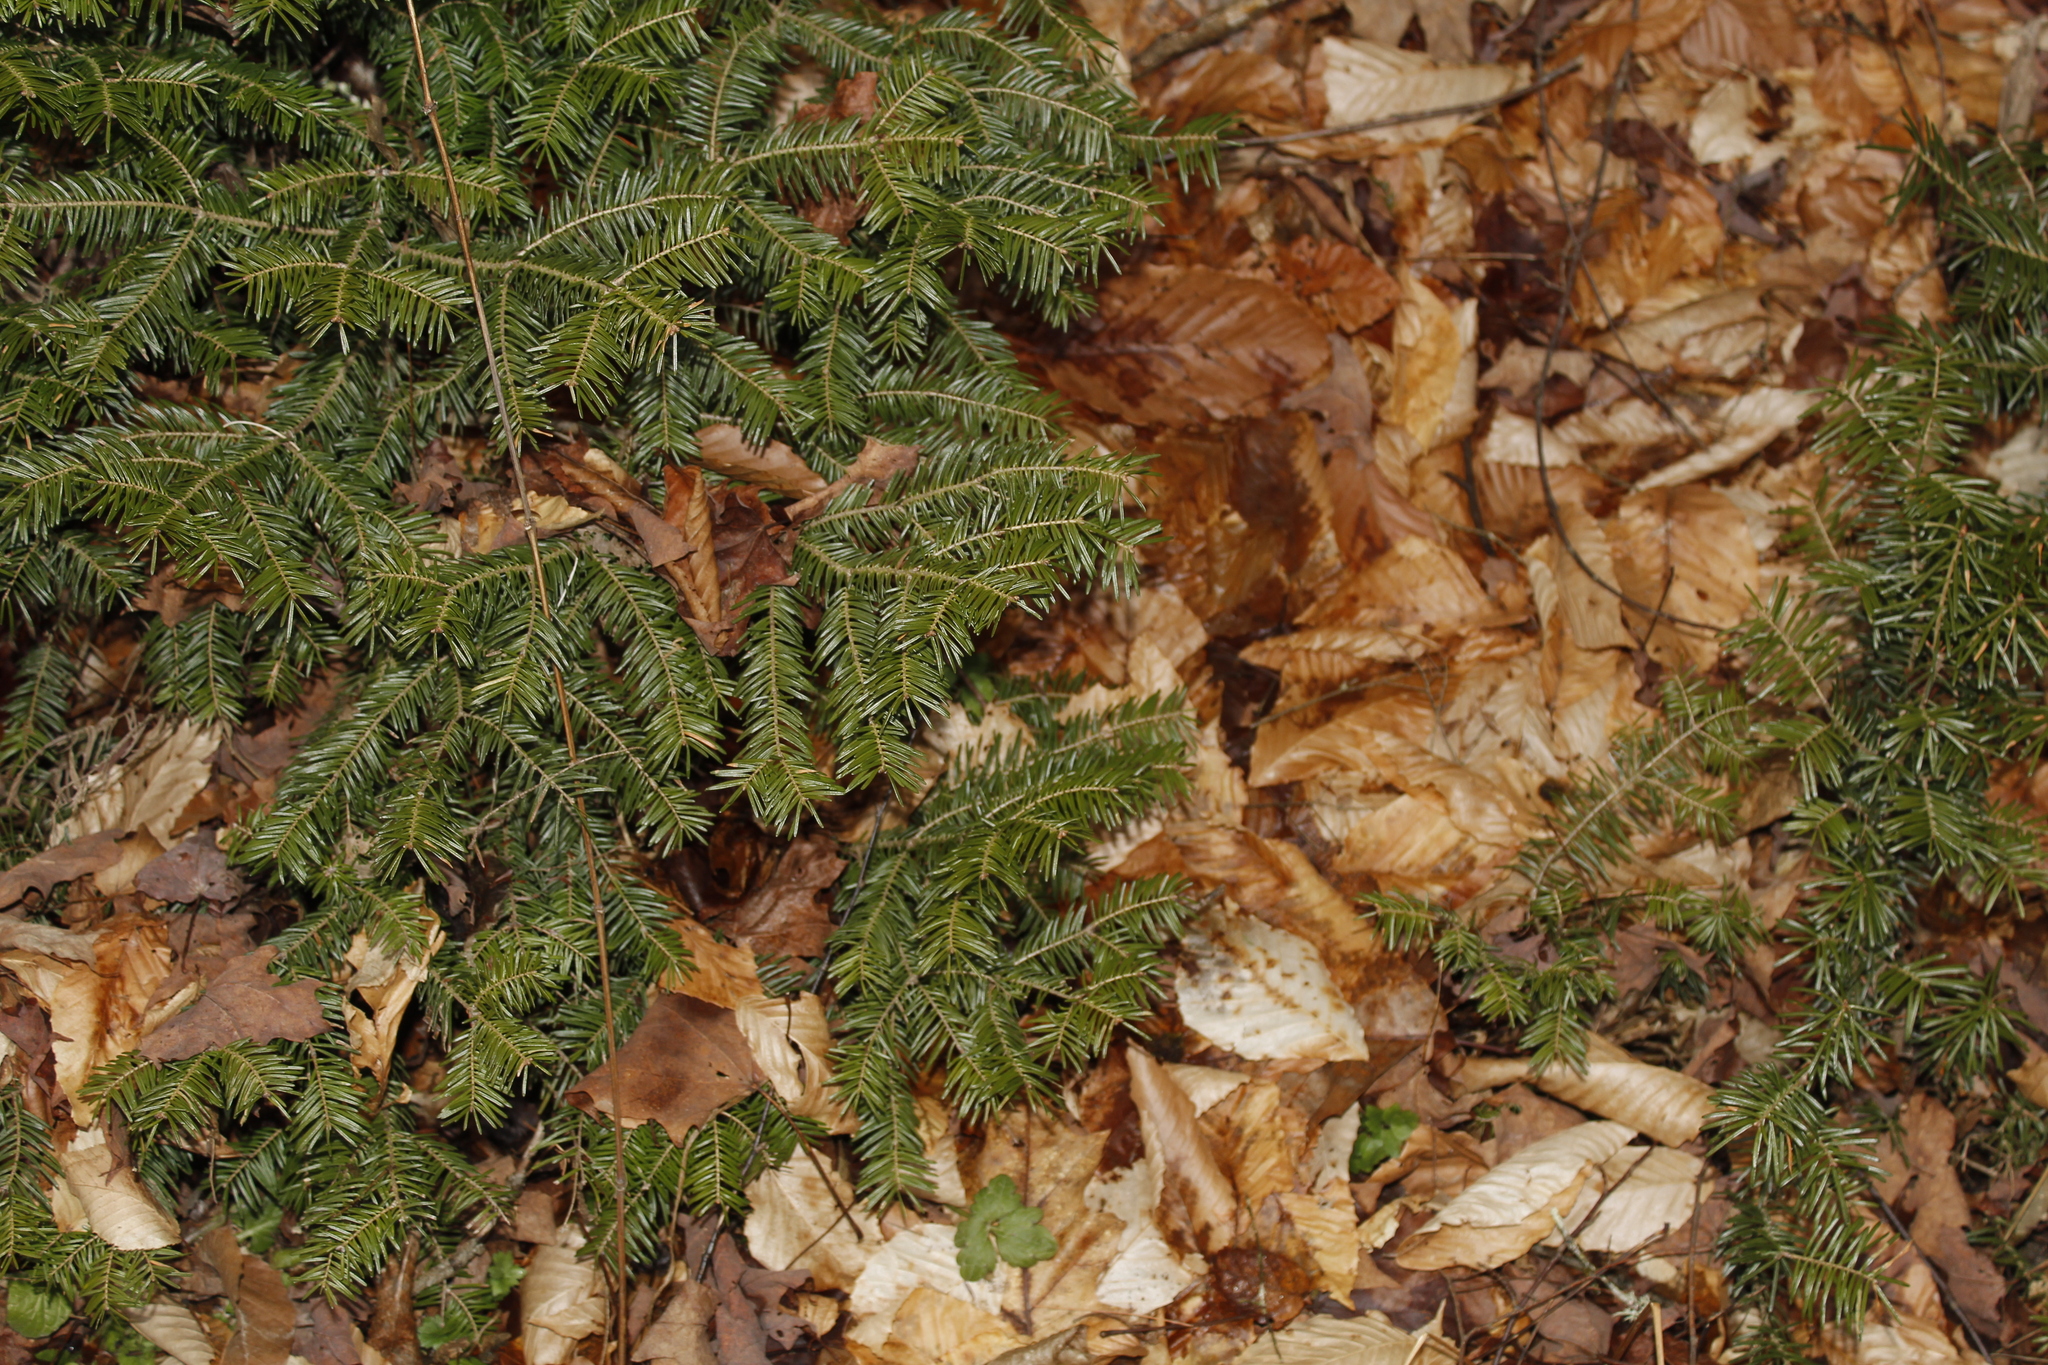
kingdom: Plantae
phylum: Tracheophyta
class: Pinopsida
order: Pinales
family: Pinaceae
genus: Abies
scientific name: Abies balsamea
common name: Balsam fir
